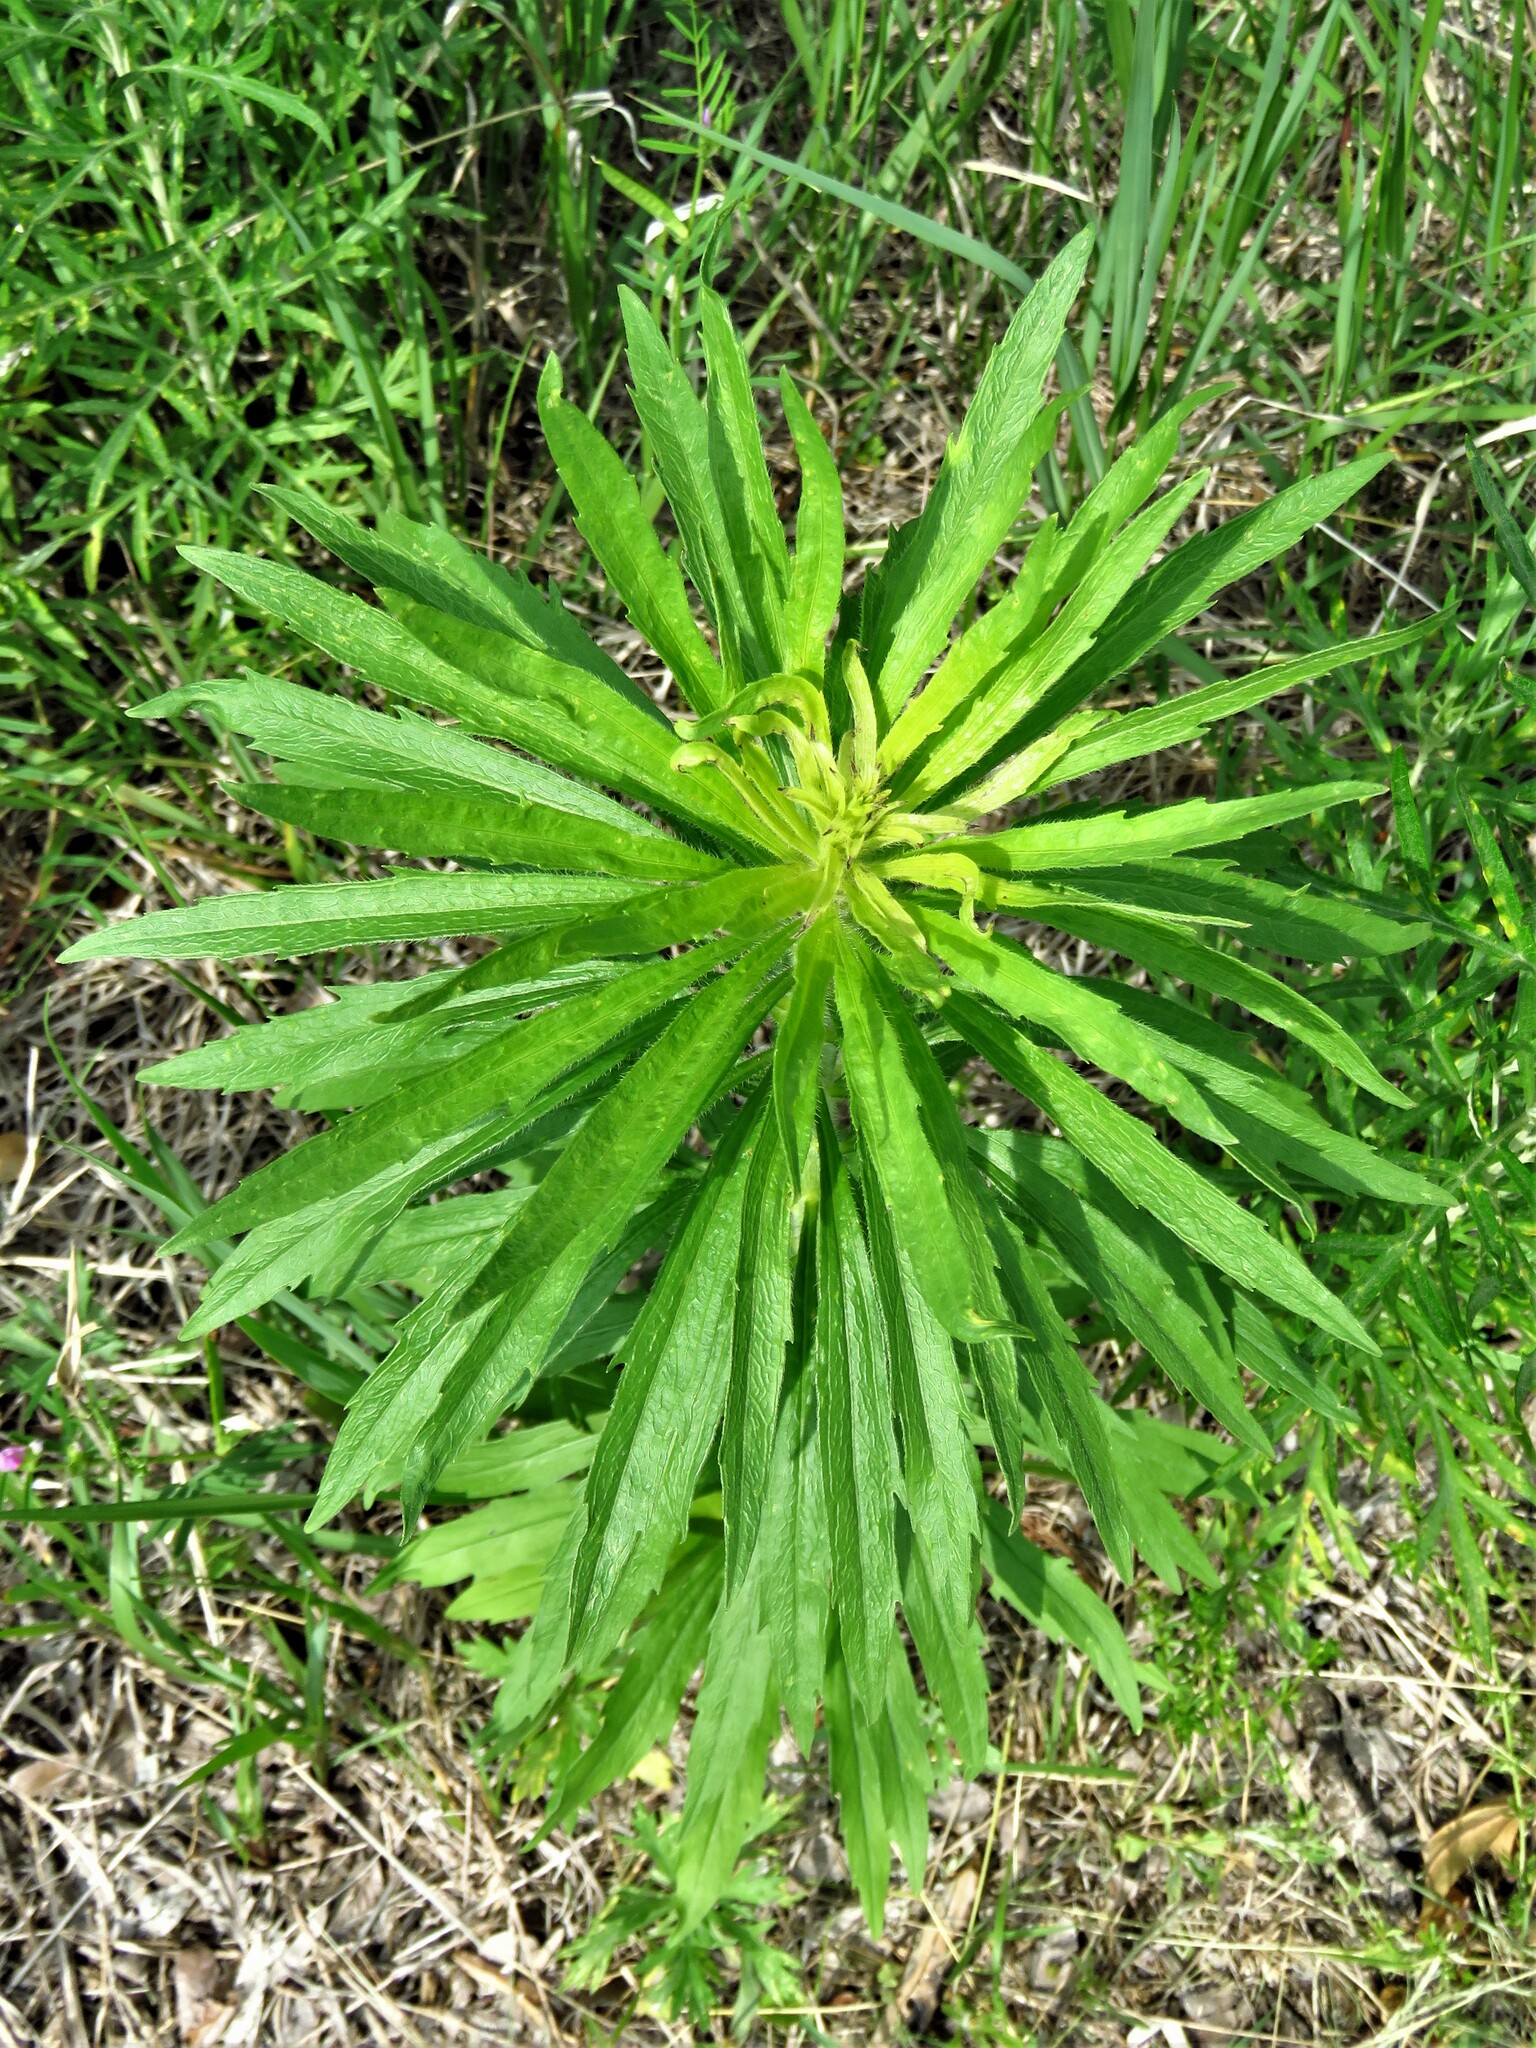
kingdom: Plantae
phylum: Tracheophyta
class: Magnoliopsida
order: Asterales
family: Asteraceae
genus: Erigeron
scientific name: Erigeron canadensis
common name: Canadian fleabane
